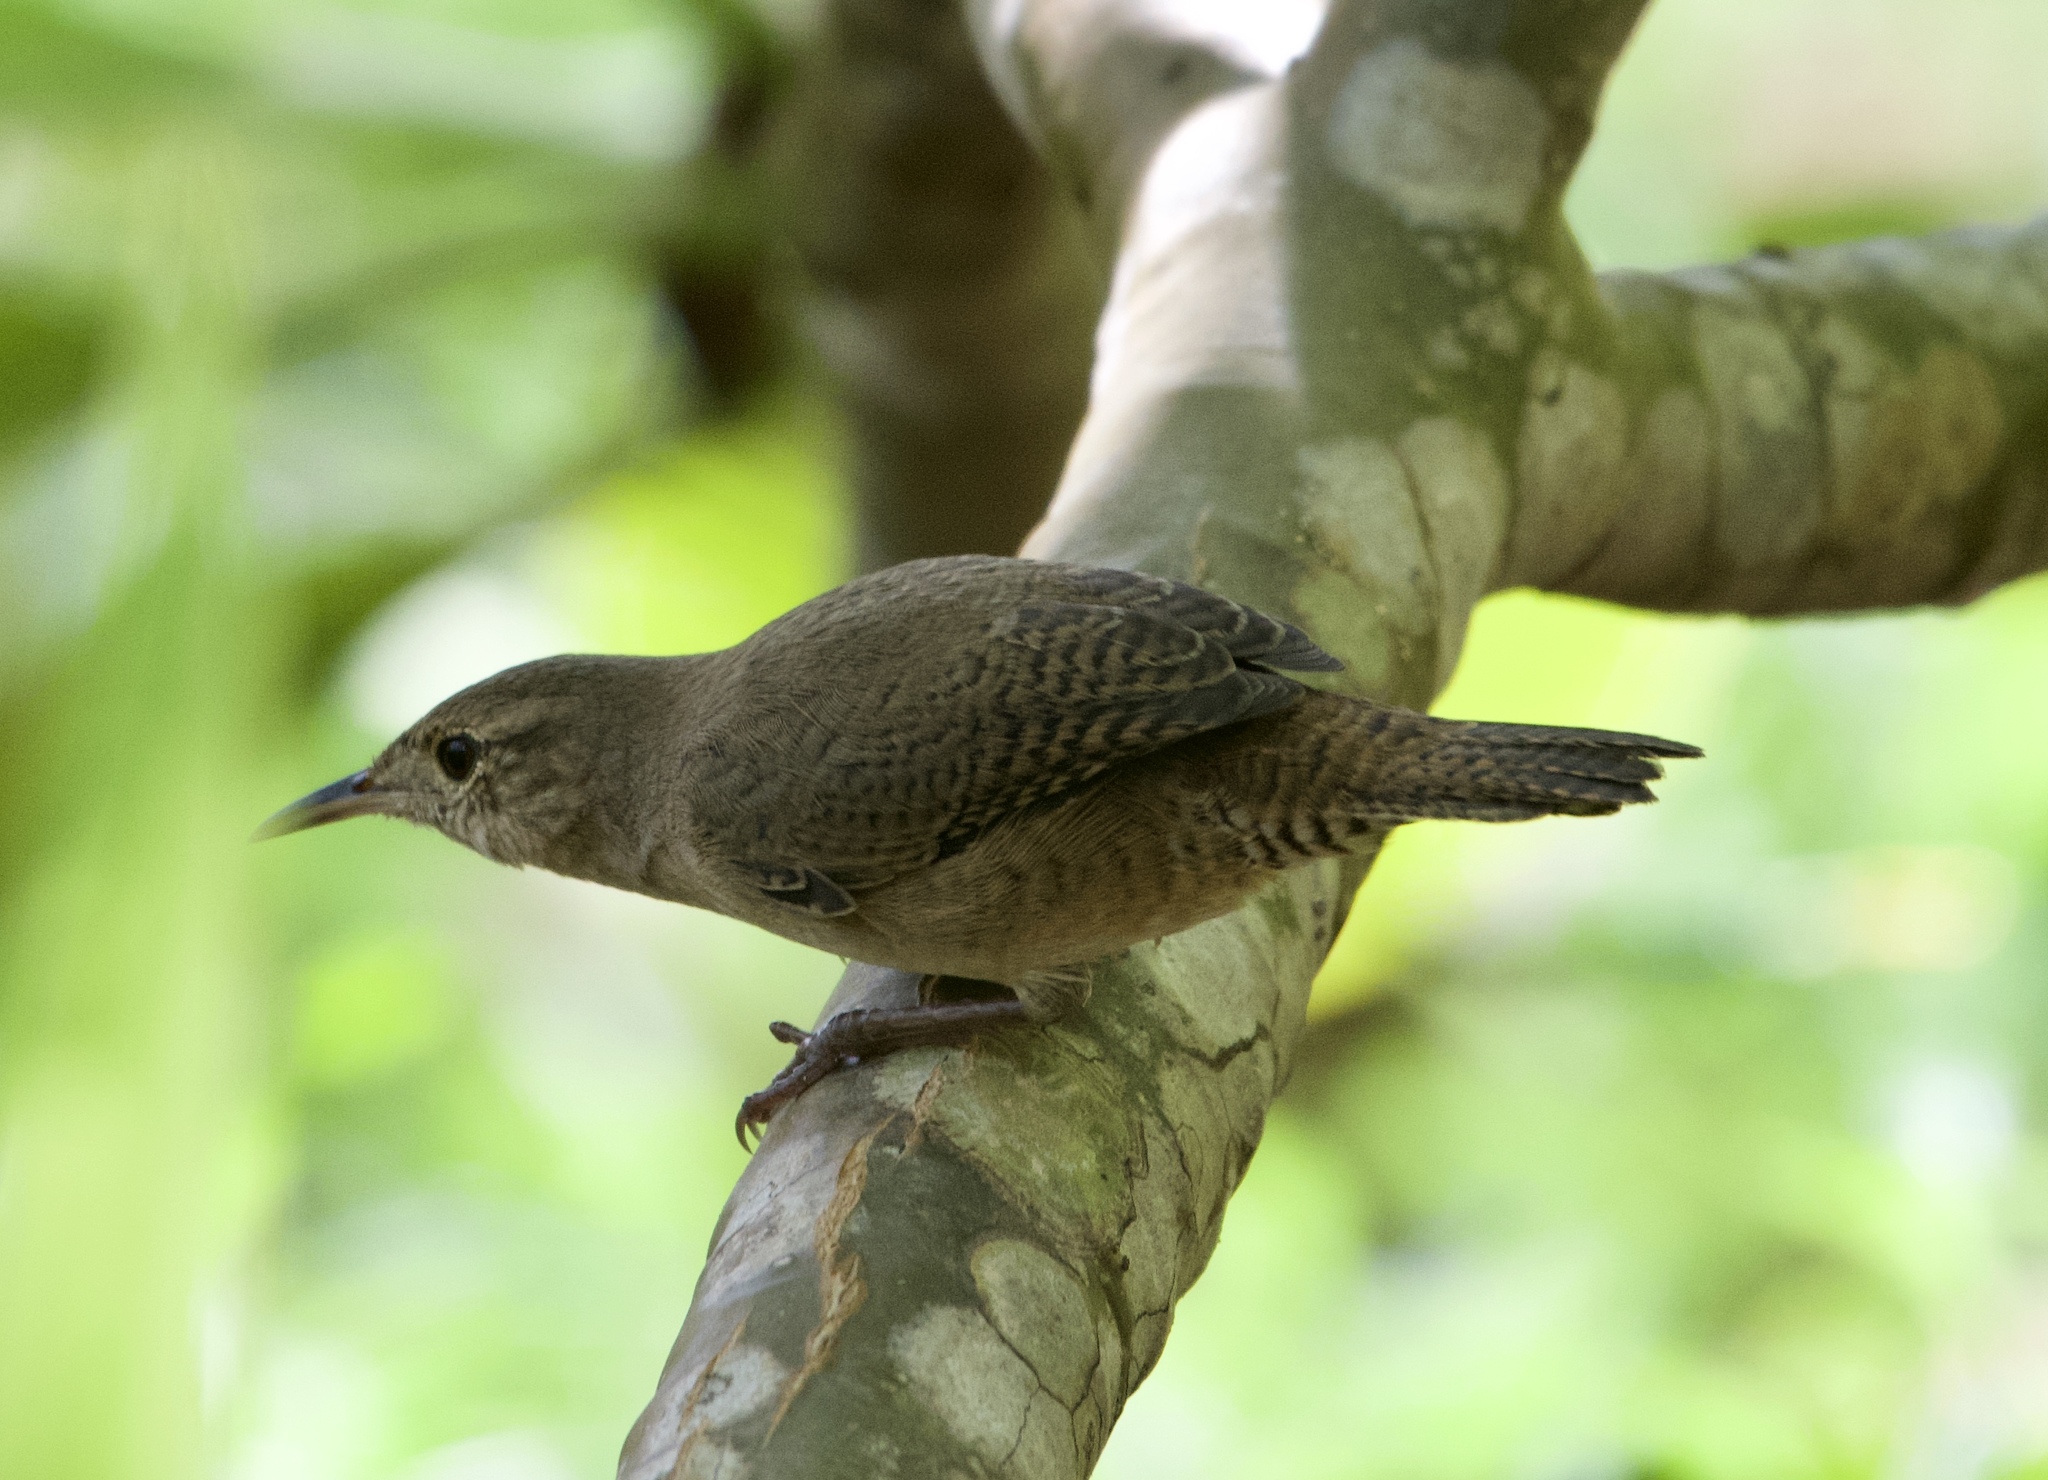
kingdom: Animalia
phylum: Chordata
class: Aves
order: Passeriformes
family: Troglodytidae
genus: Troglodytes
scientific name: Troglodytes aedon
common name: House wren
